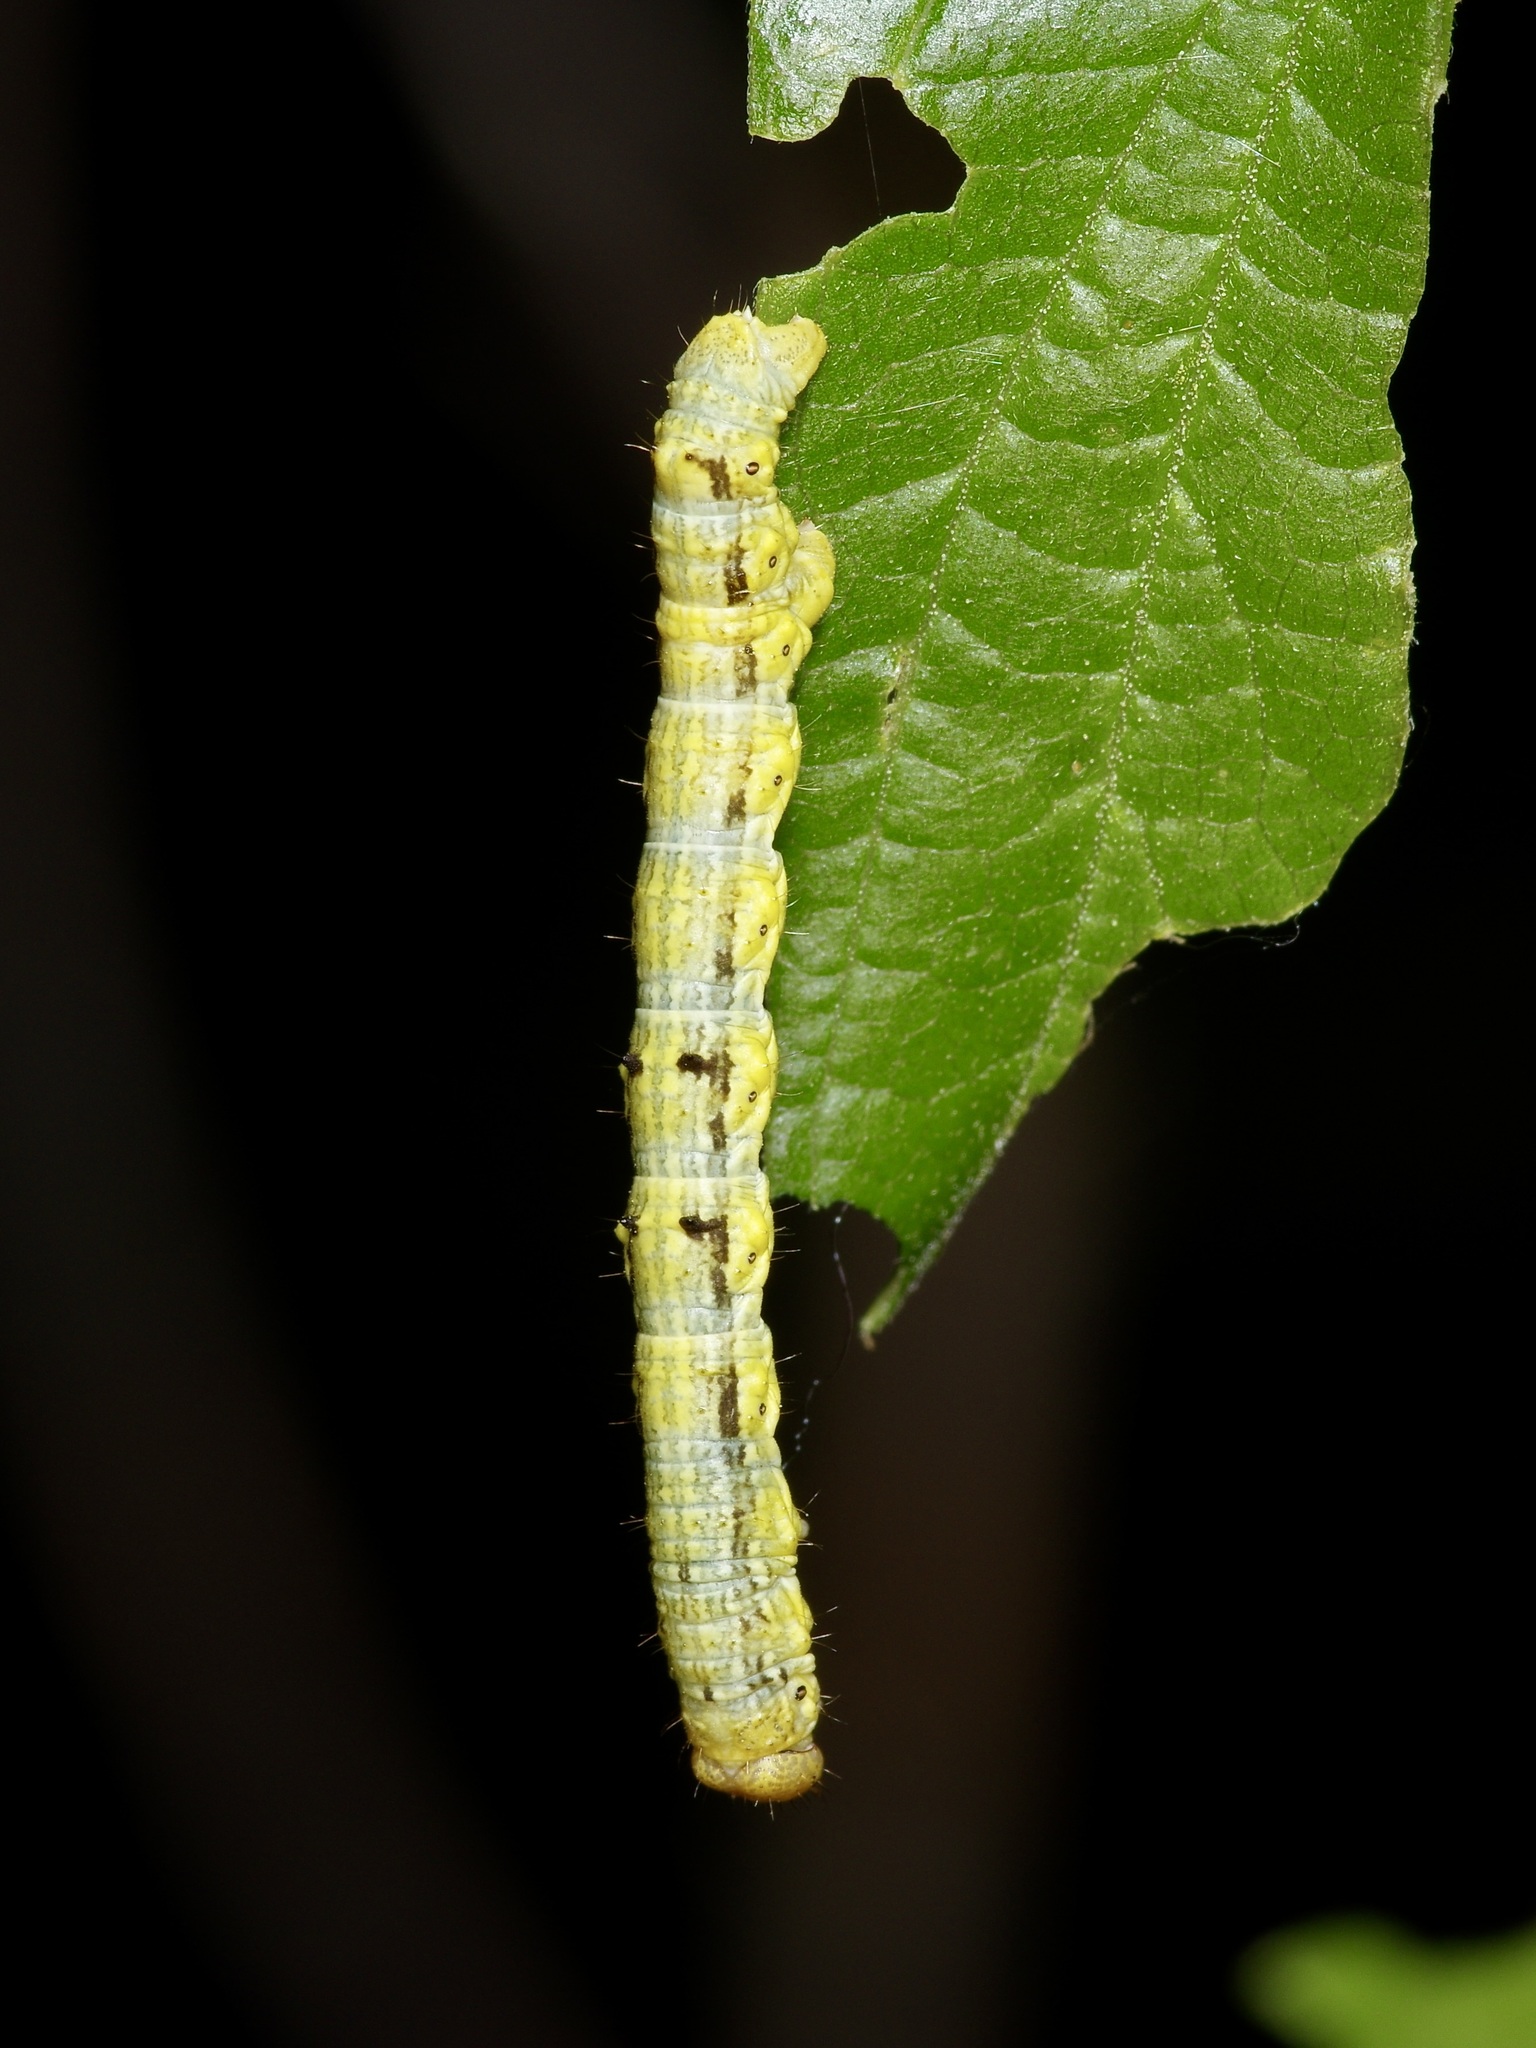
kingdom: Animalia
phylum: Arthropoda
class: Insecta
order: Lepidoptera
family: Geometridae
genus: Phigalia
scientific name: Phigalia strigataria
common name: Small phigalia
